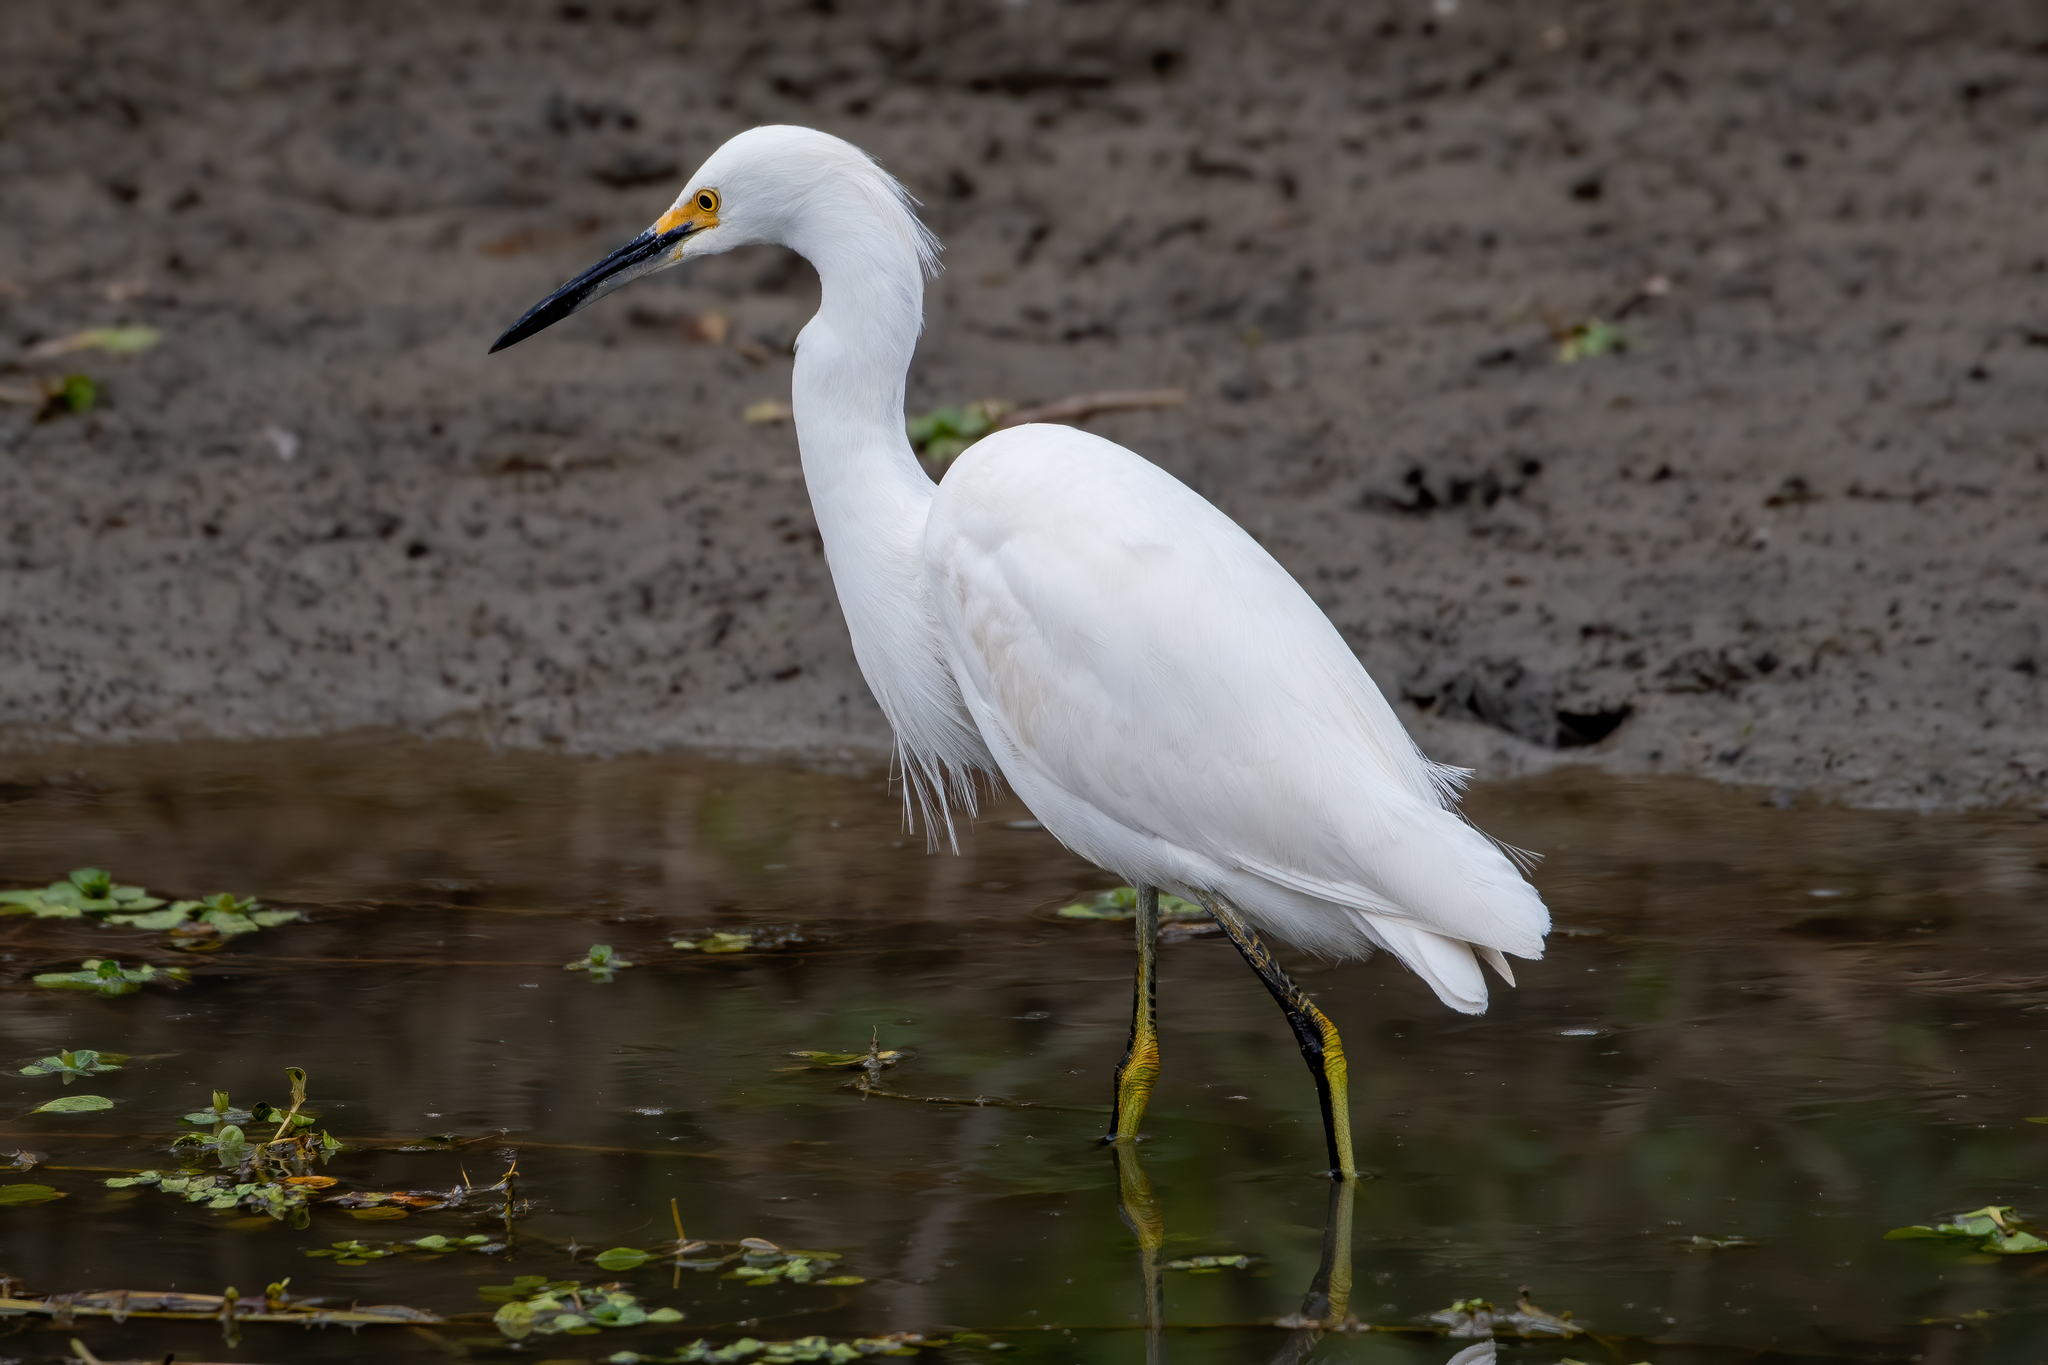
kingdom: Animalia
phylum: Chordata
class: Aves
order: Pelecaniformes
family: Ardeidae
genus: Egretta
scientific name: Egretta thula
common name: Snowy egret
